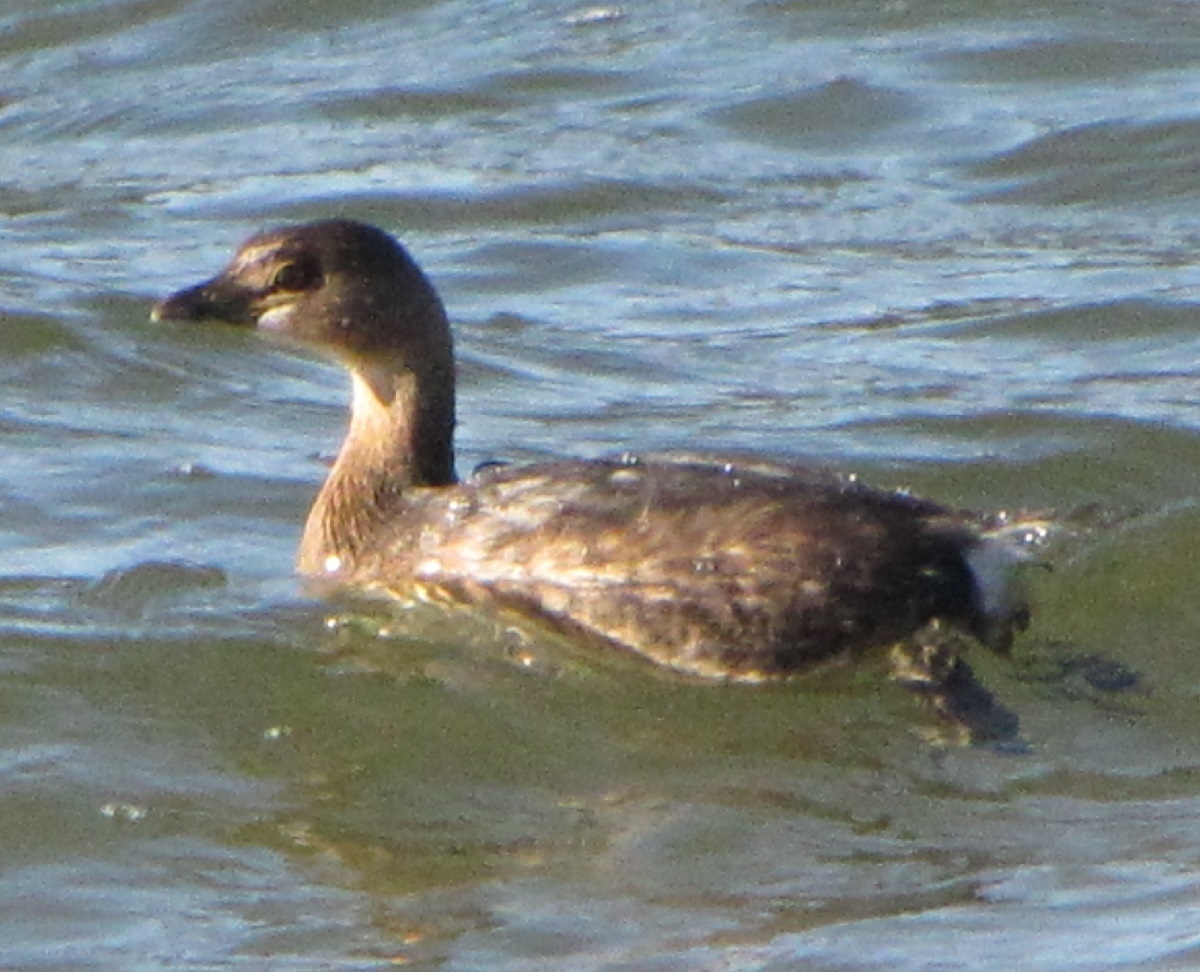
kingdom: Animalia
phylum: Chordata
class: Aves
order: Podicipediformes
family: Podicipedidae
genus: Podilymbus
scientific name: Podilymbus podiceps
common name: Pied-billed grebe
